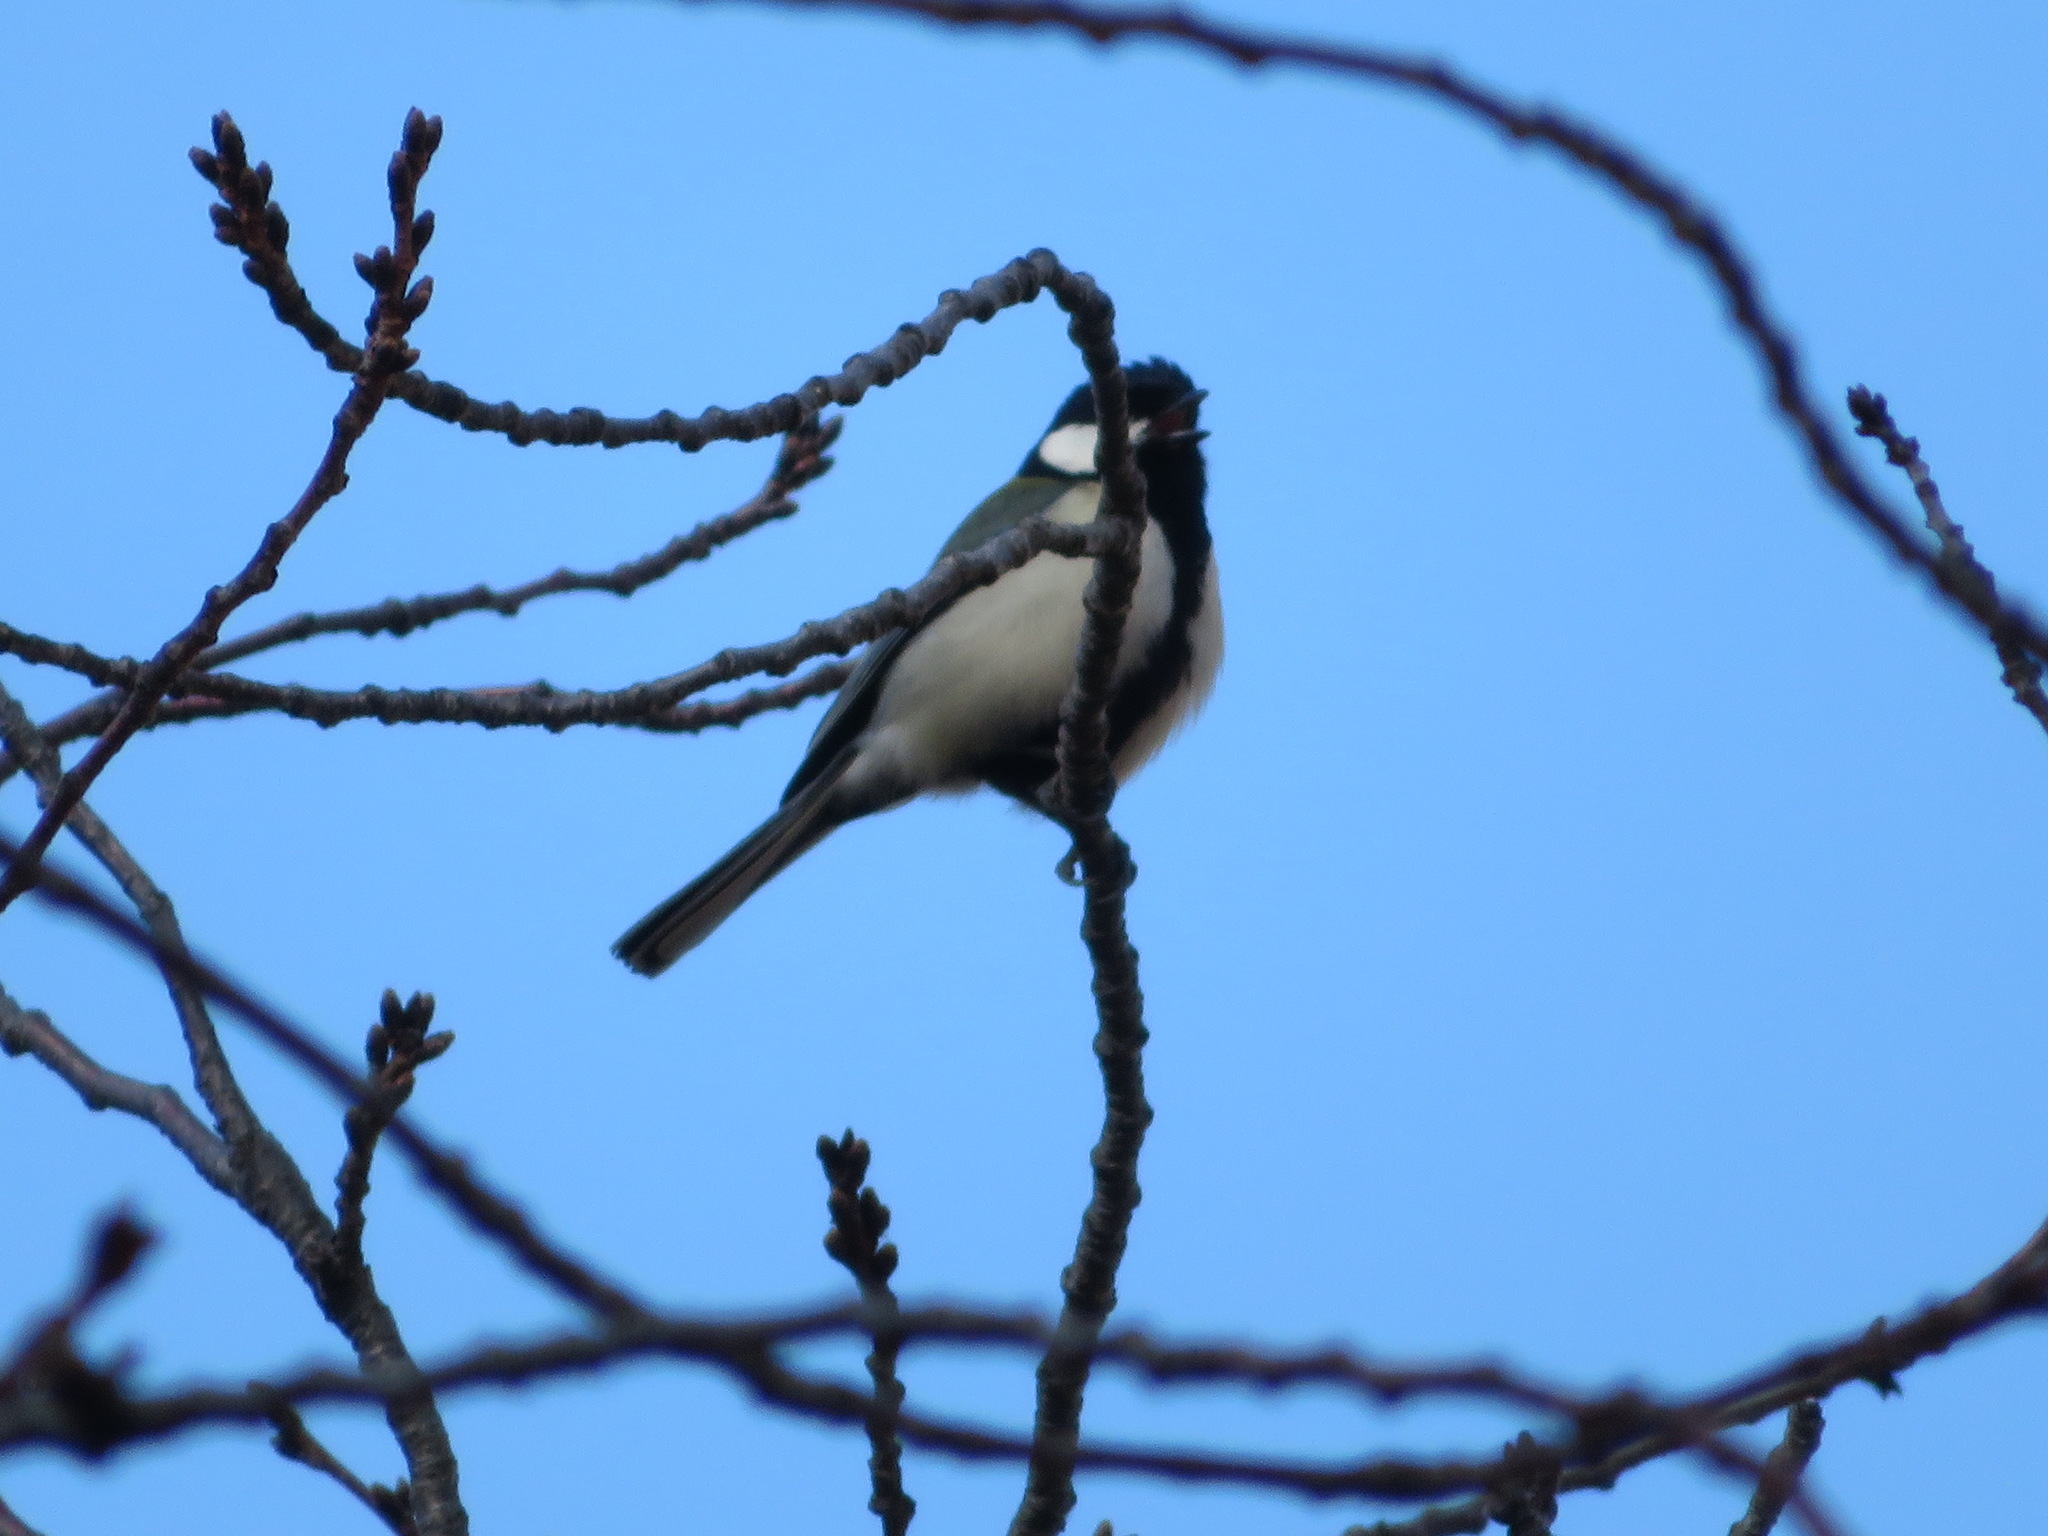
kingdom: Animalia
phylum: Chordata
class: Aves
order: Passeriformes
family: Paridae
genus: Parus
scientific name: Parus minor
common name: Japanese tit
